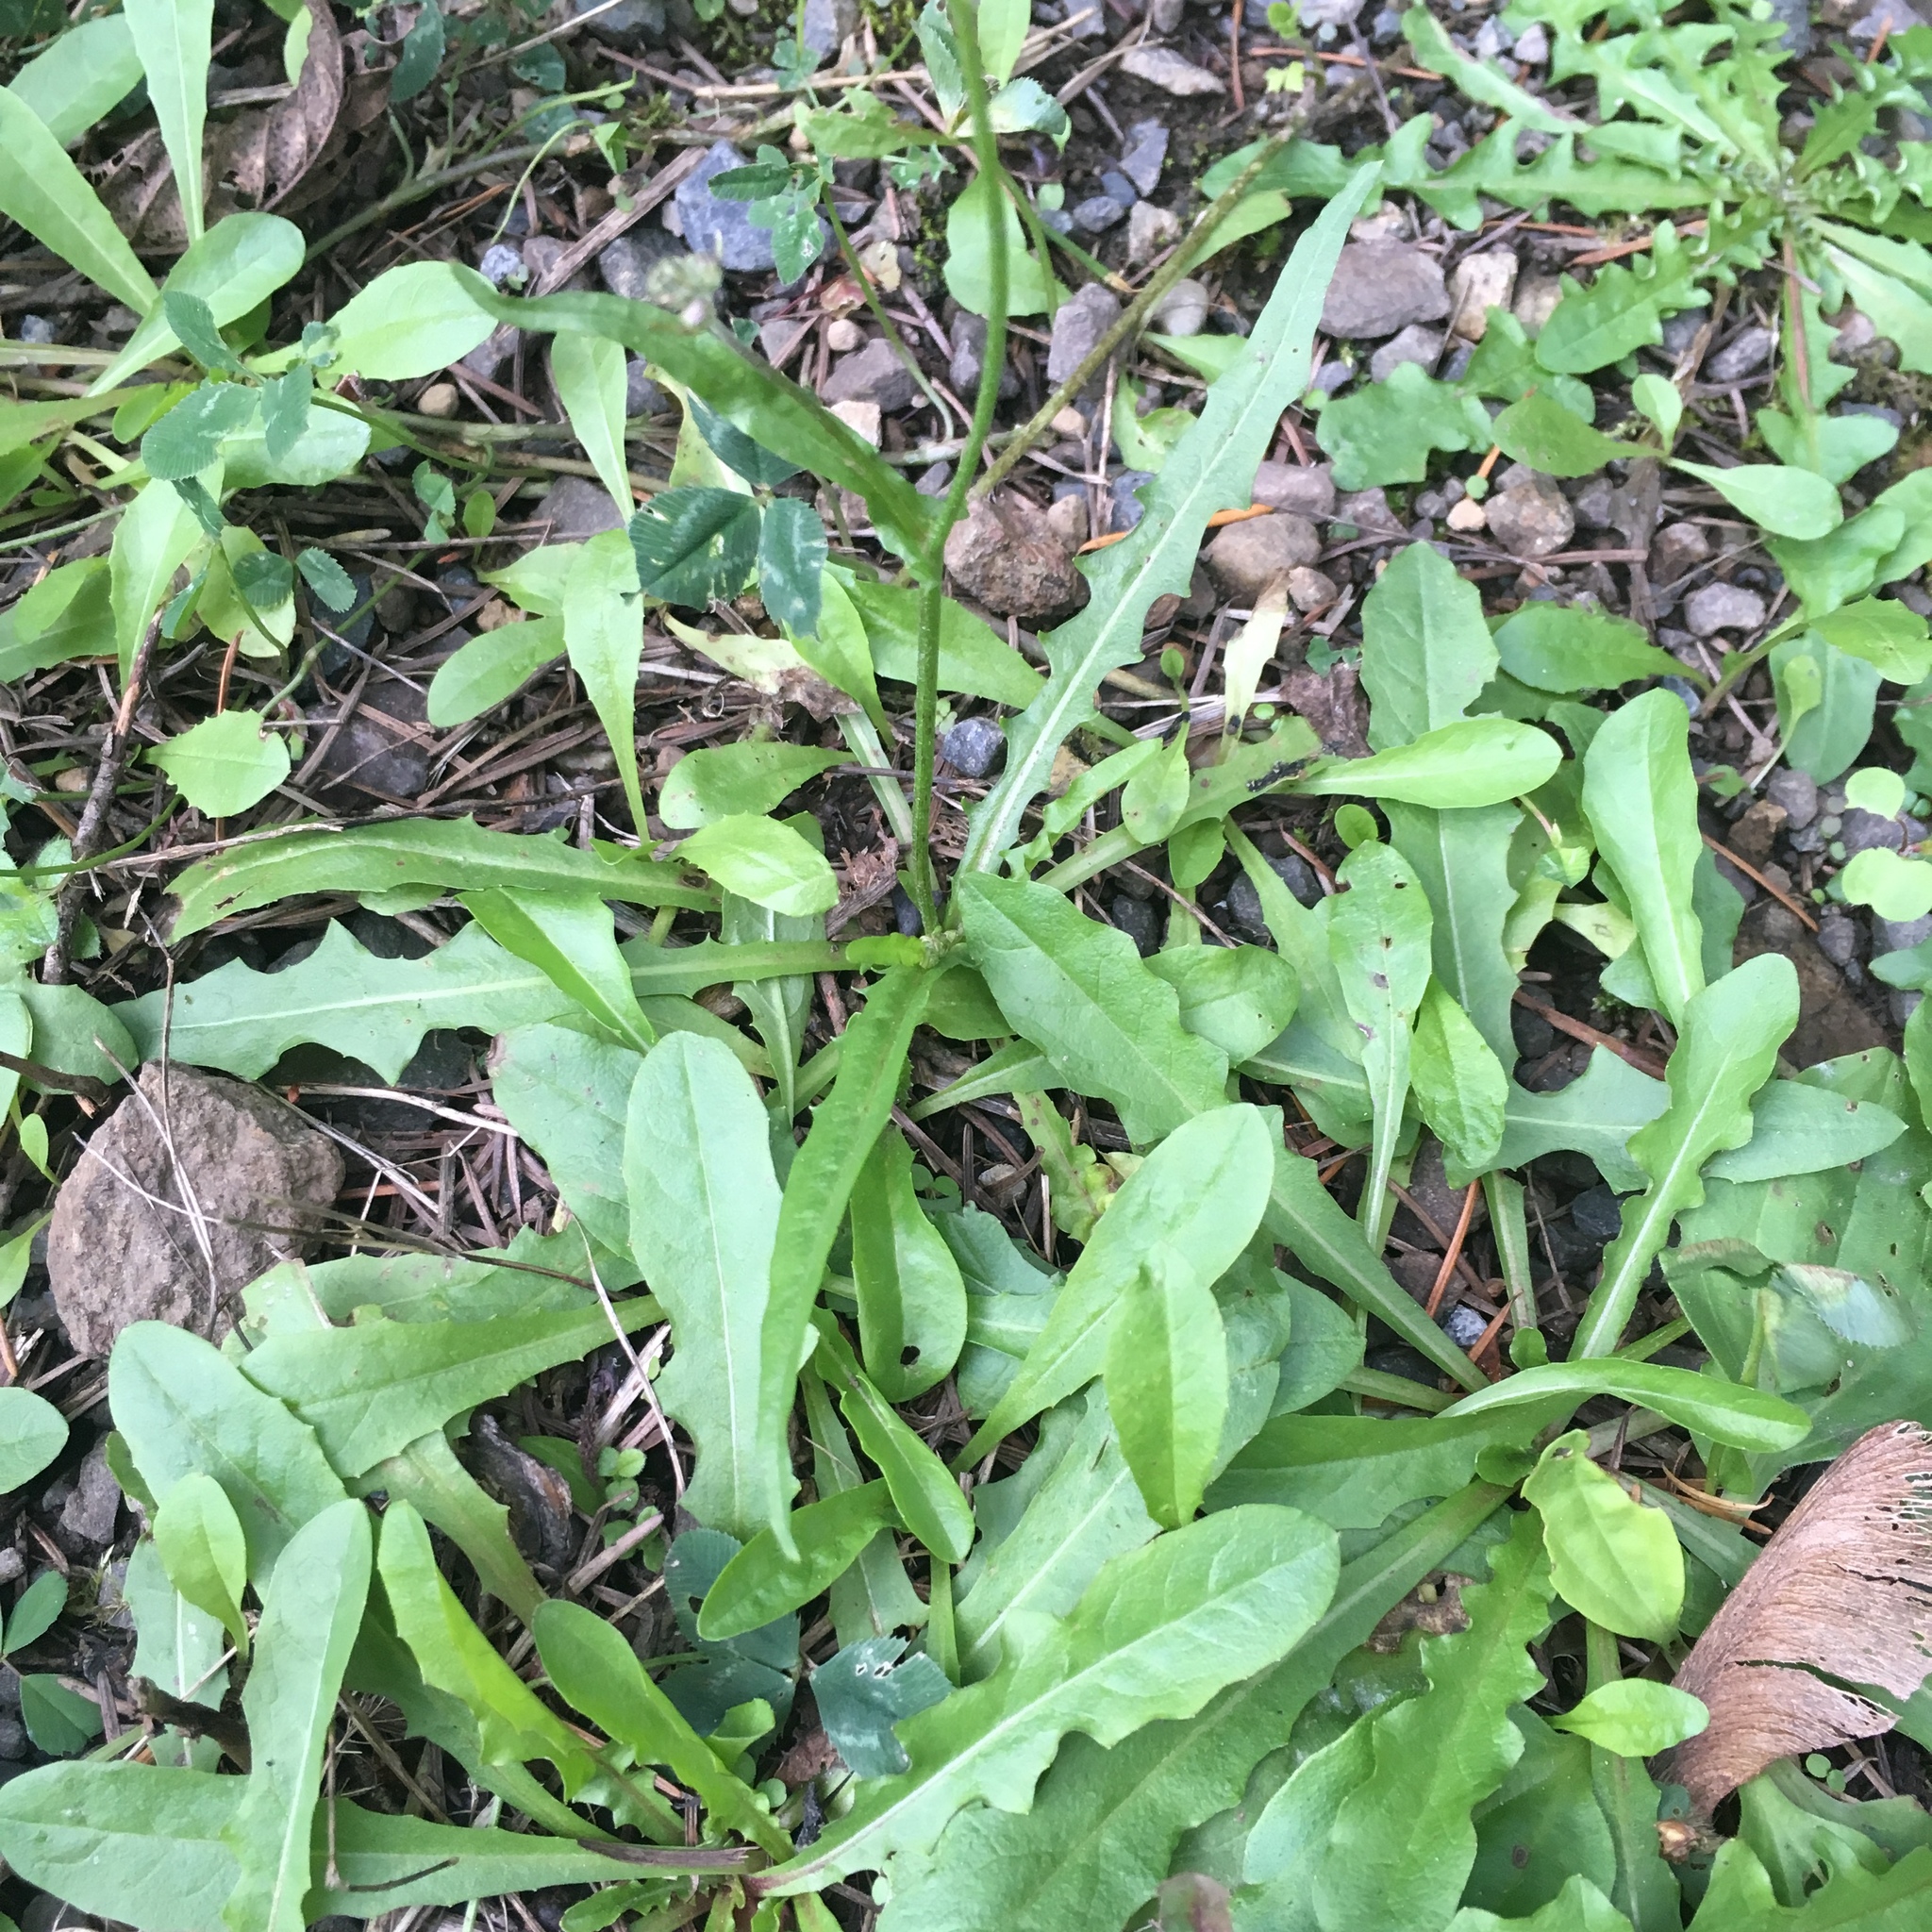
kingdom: Plantae
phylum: Tracheophyta
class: Magnoliopsida
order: Asterales
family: Asteraceae
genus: Hypochaeris
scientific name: Hypochaeris glabra
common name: Smooth catsear
